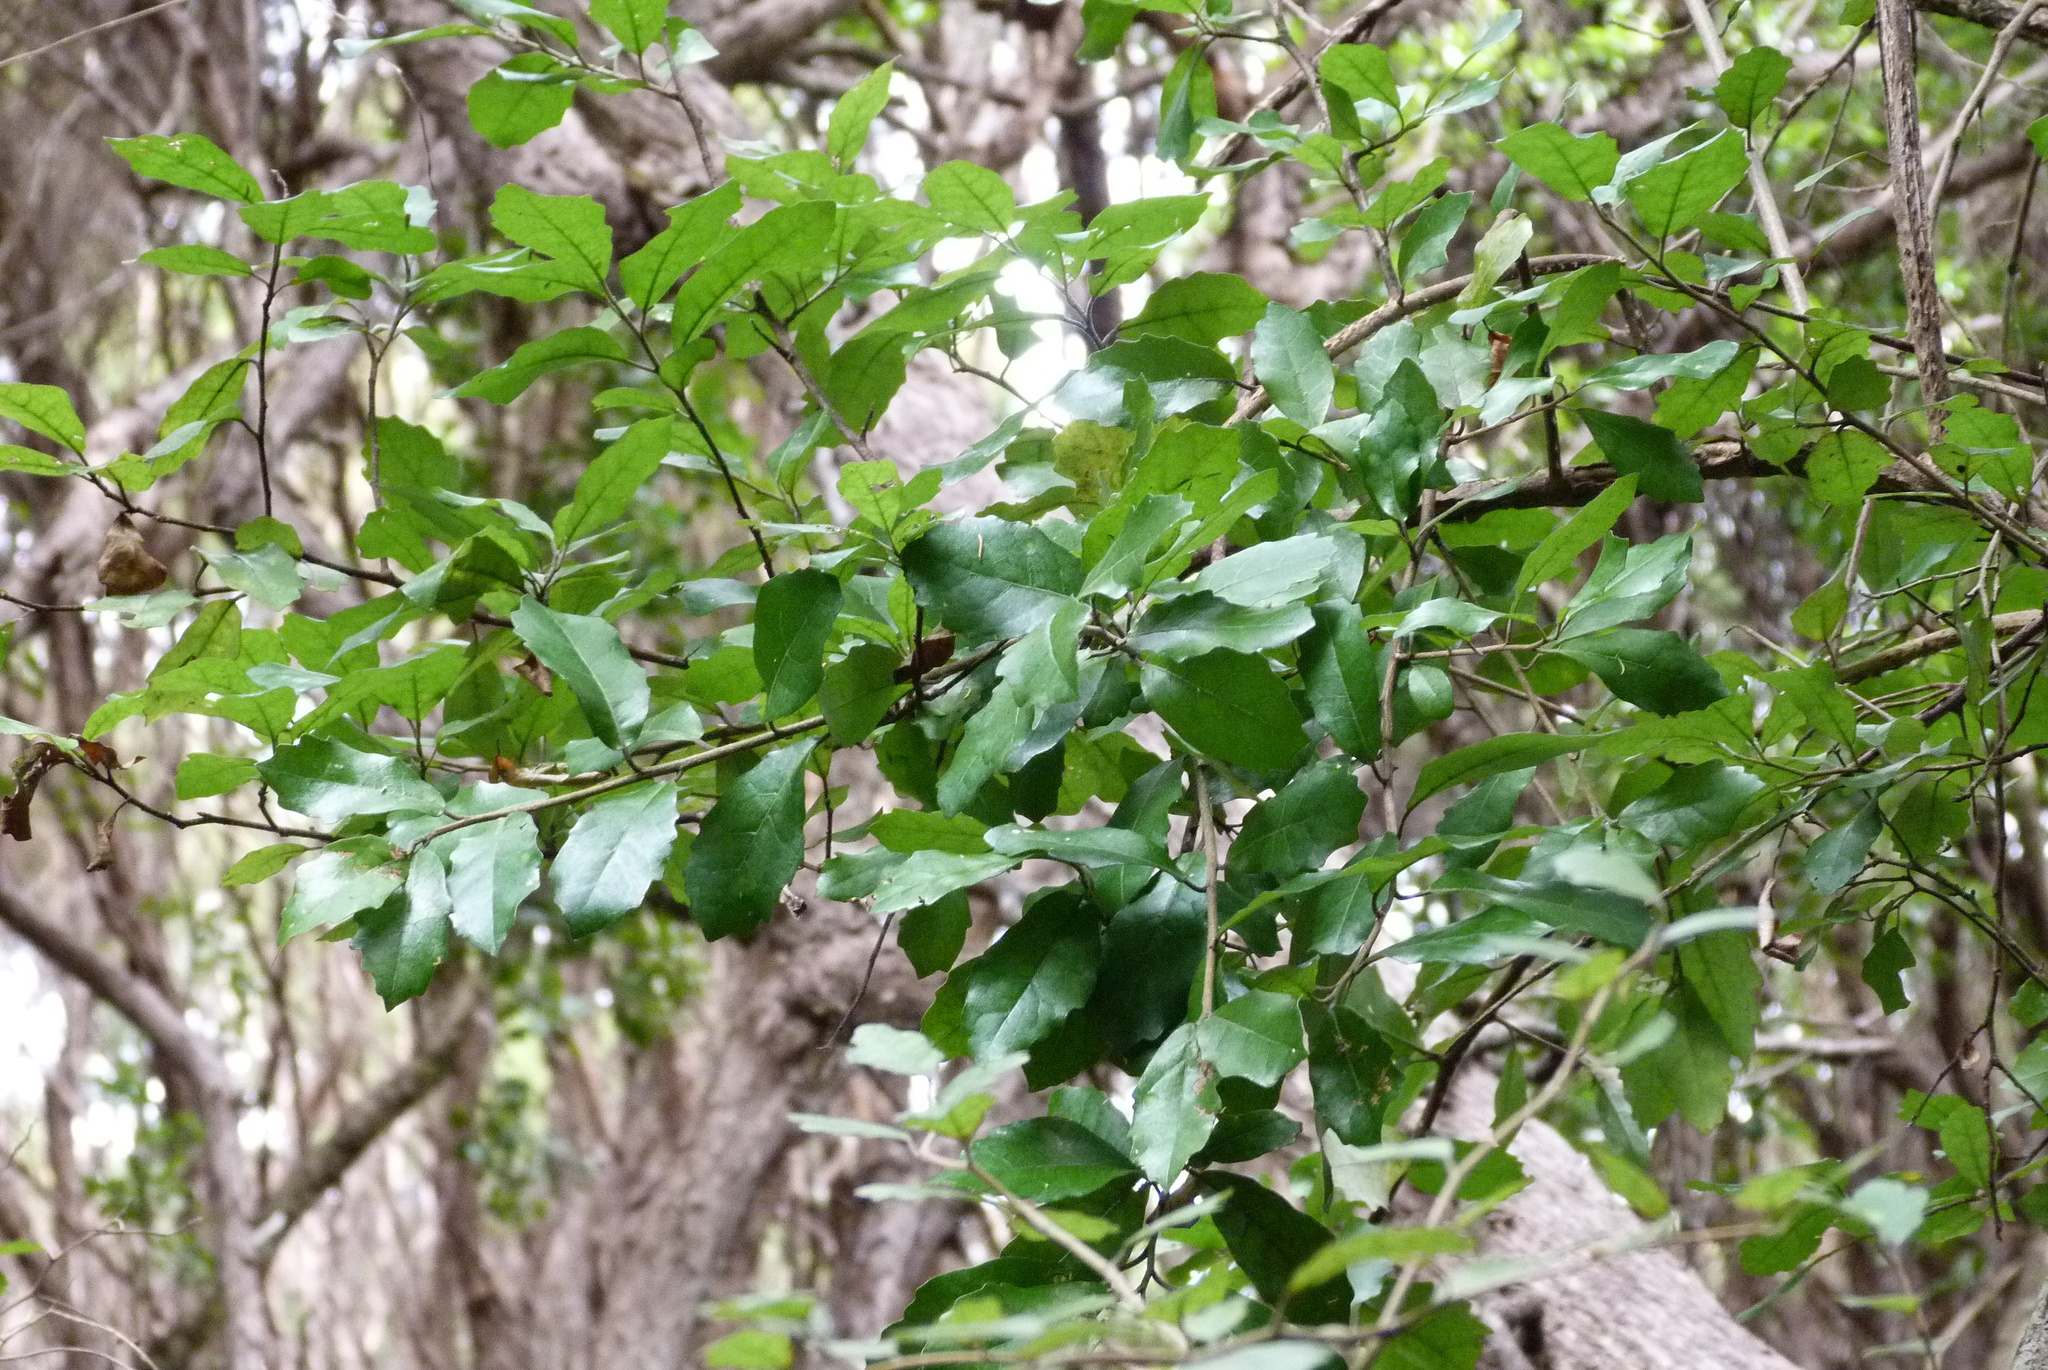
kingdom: Plantae
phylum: Tracheophyta
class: Magnoliopsida
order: Apiales
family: Pennantiaceae
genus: Pennantia
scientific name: Pennantia corymbosa
